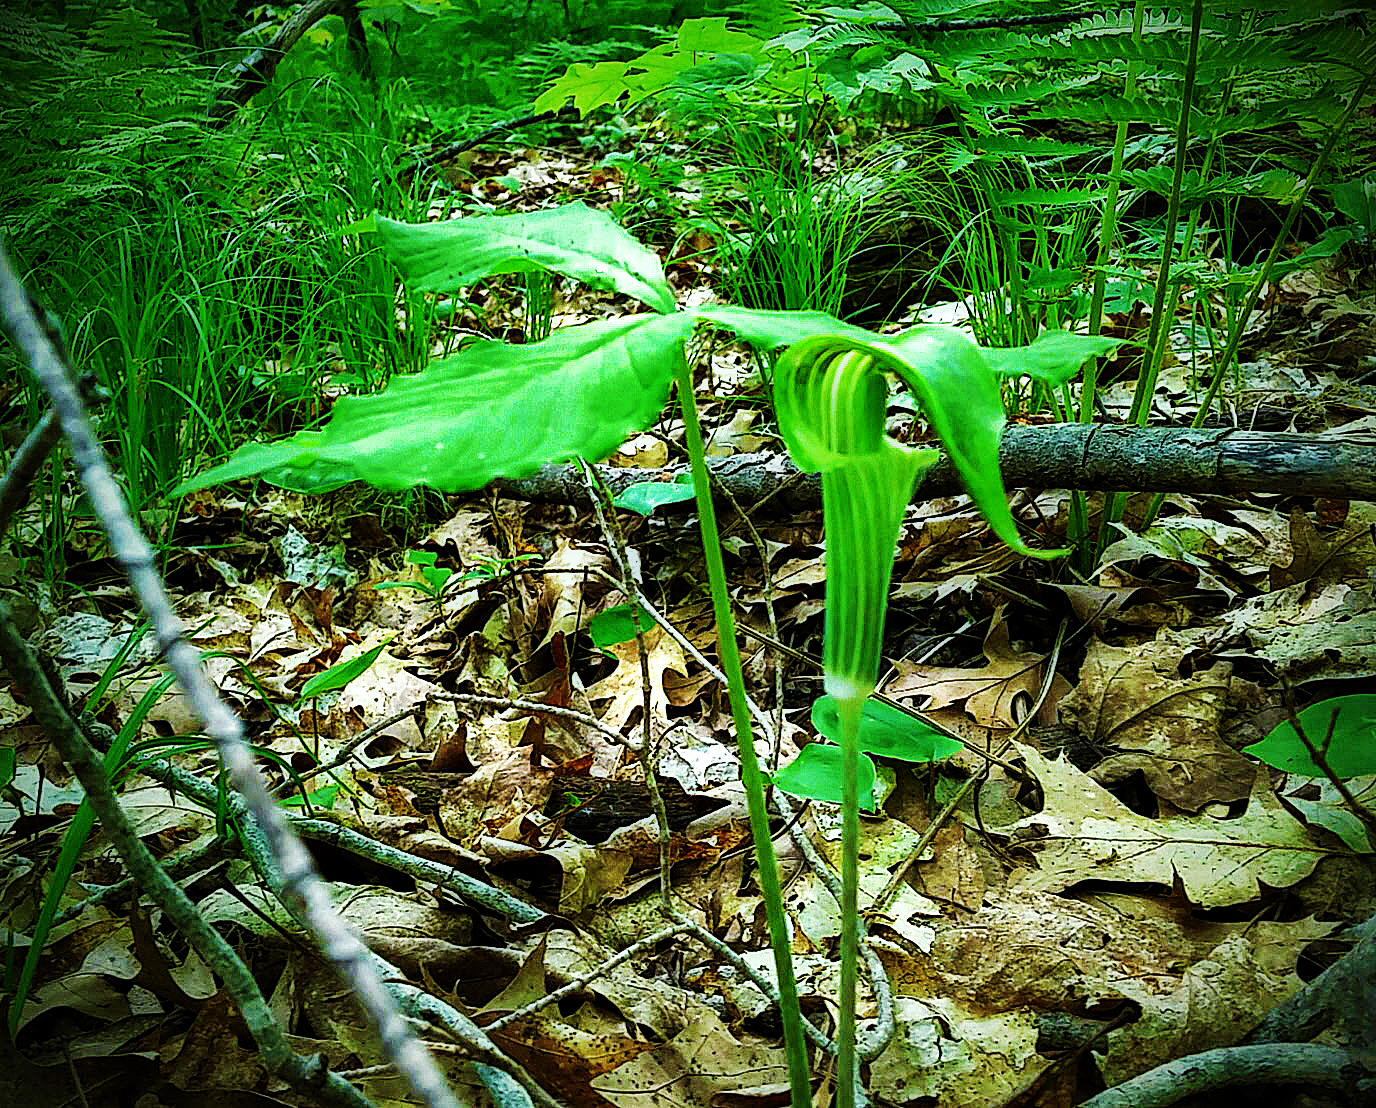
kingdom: Plantae
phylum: Tracheophyta
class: Liliopsida
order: Alismatales
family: Araceae
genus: Arisaema
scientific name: Arisaema triphyllum
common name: Jack-in-the-pulpit
